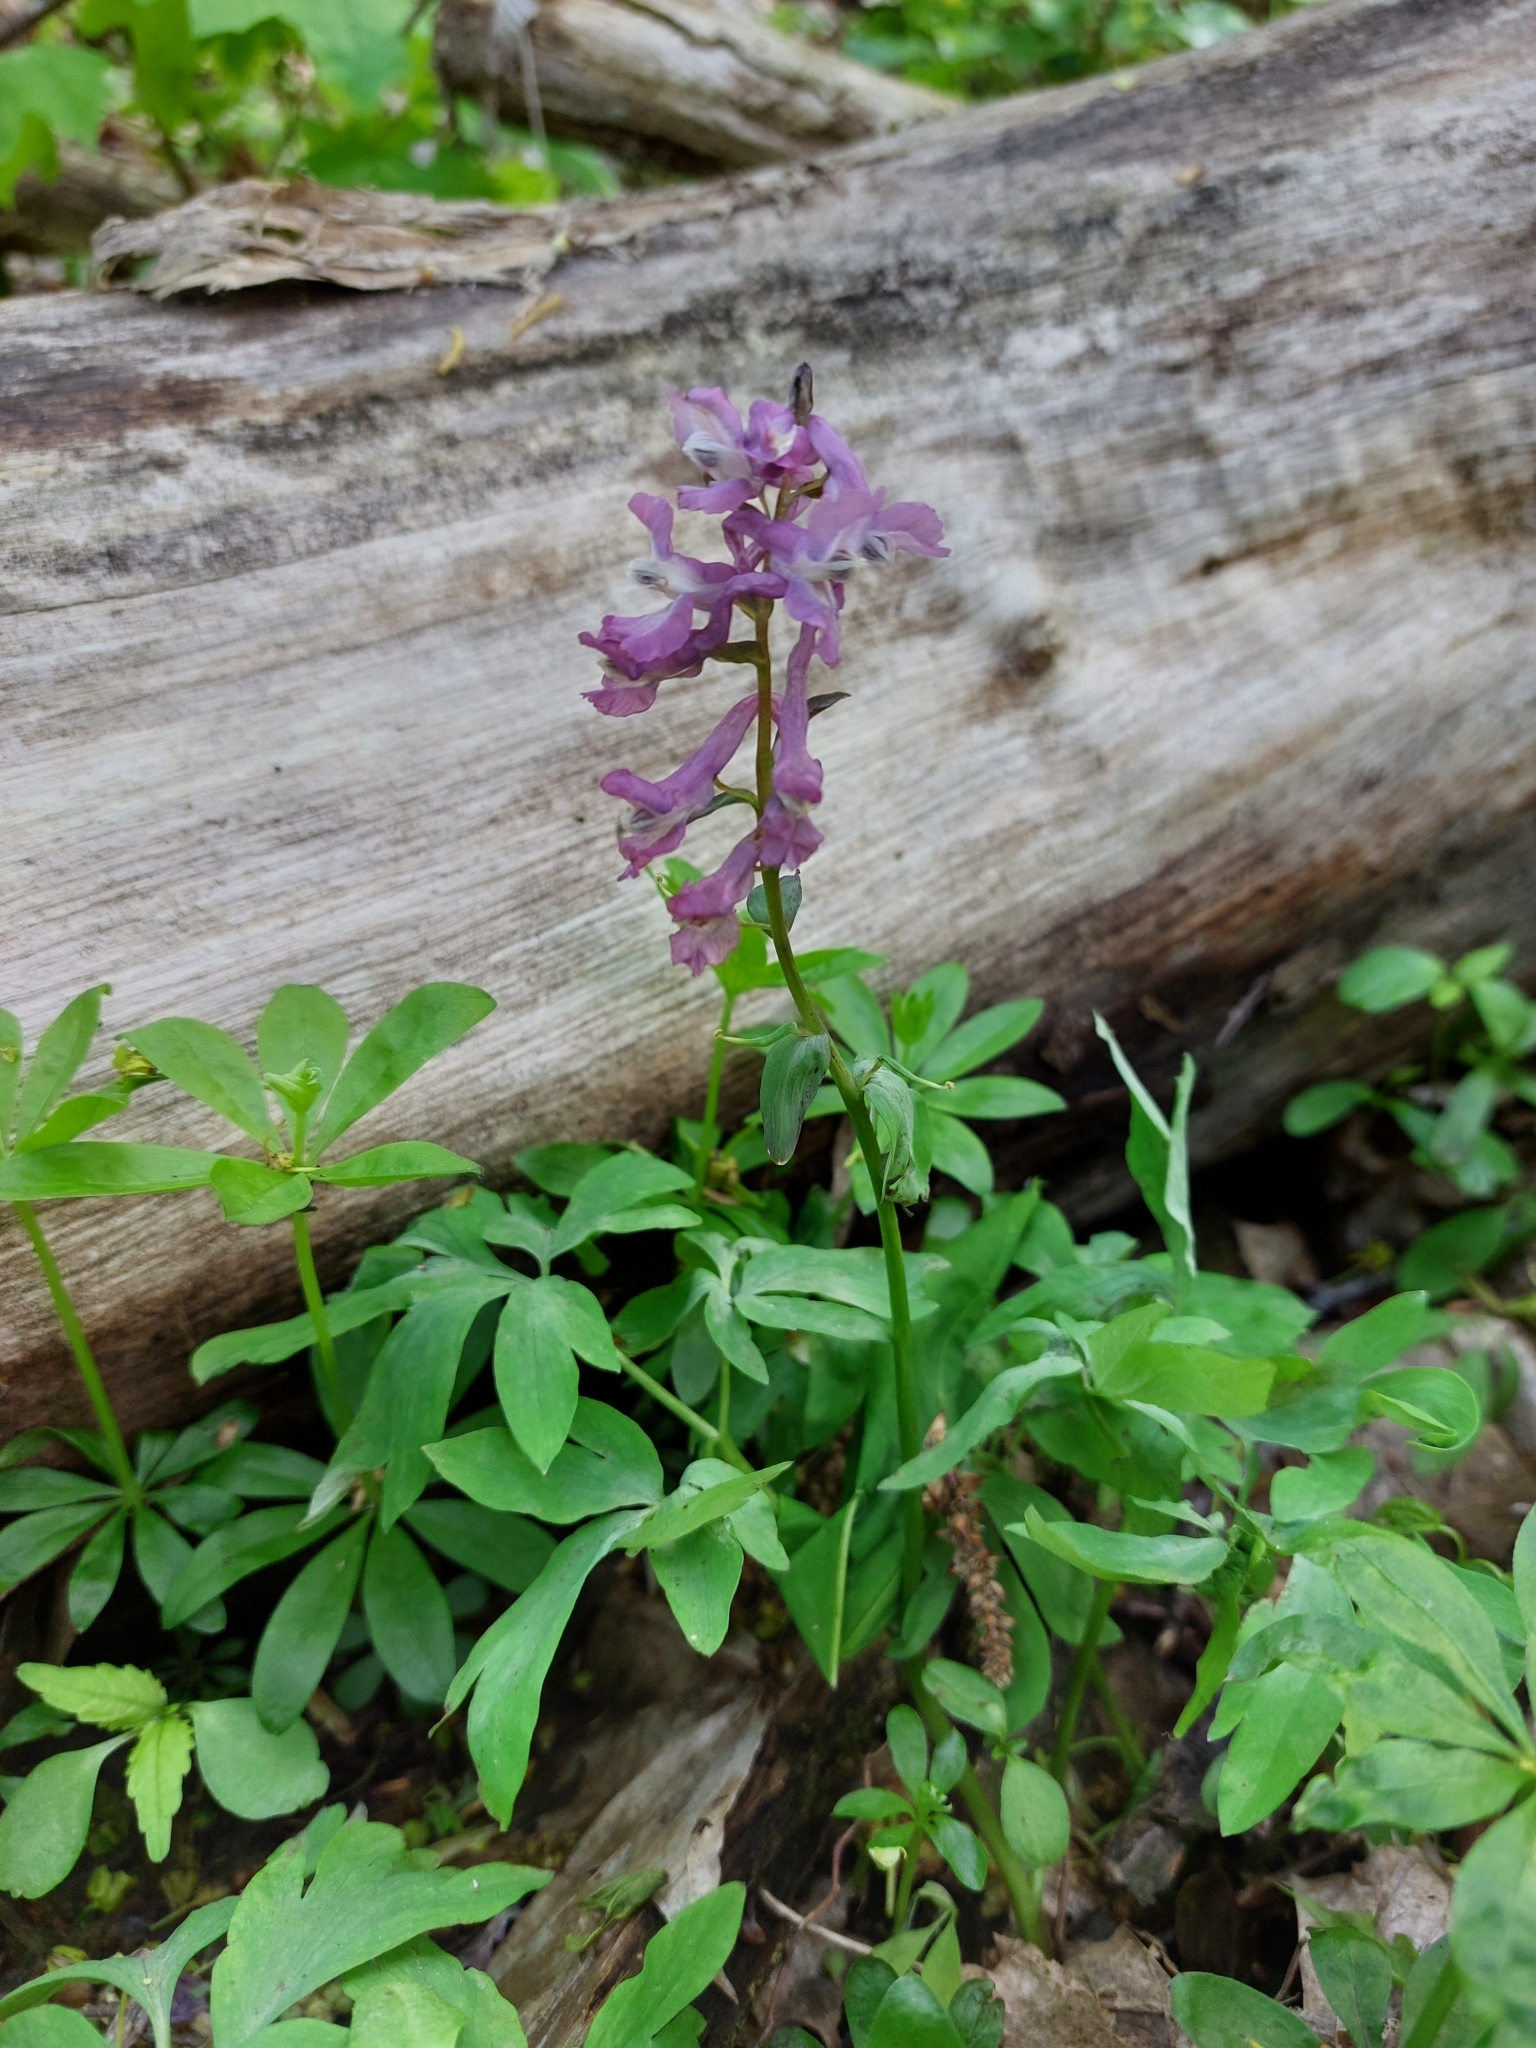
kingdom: Plantae
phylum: Tracheophyta
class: Magnoliopsida
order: Ranunculales
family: Papaveraceae
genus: Corydalis
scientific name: Corydalis cava
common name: Hollowroot
